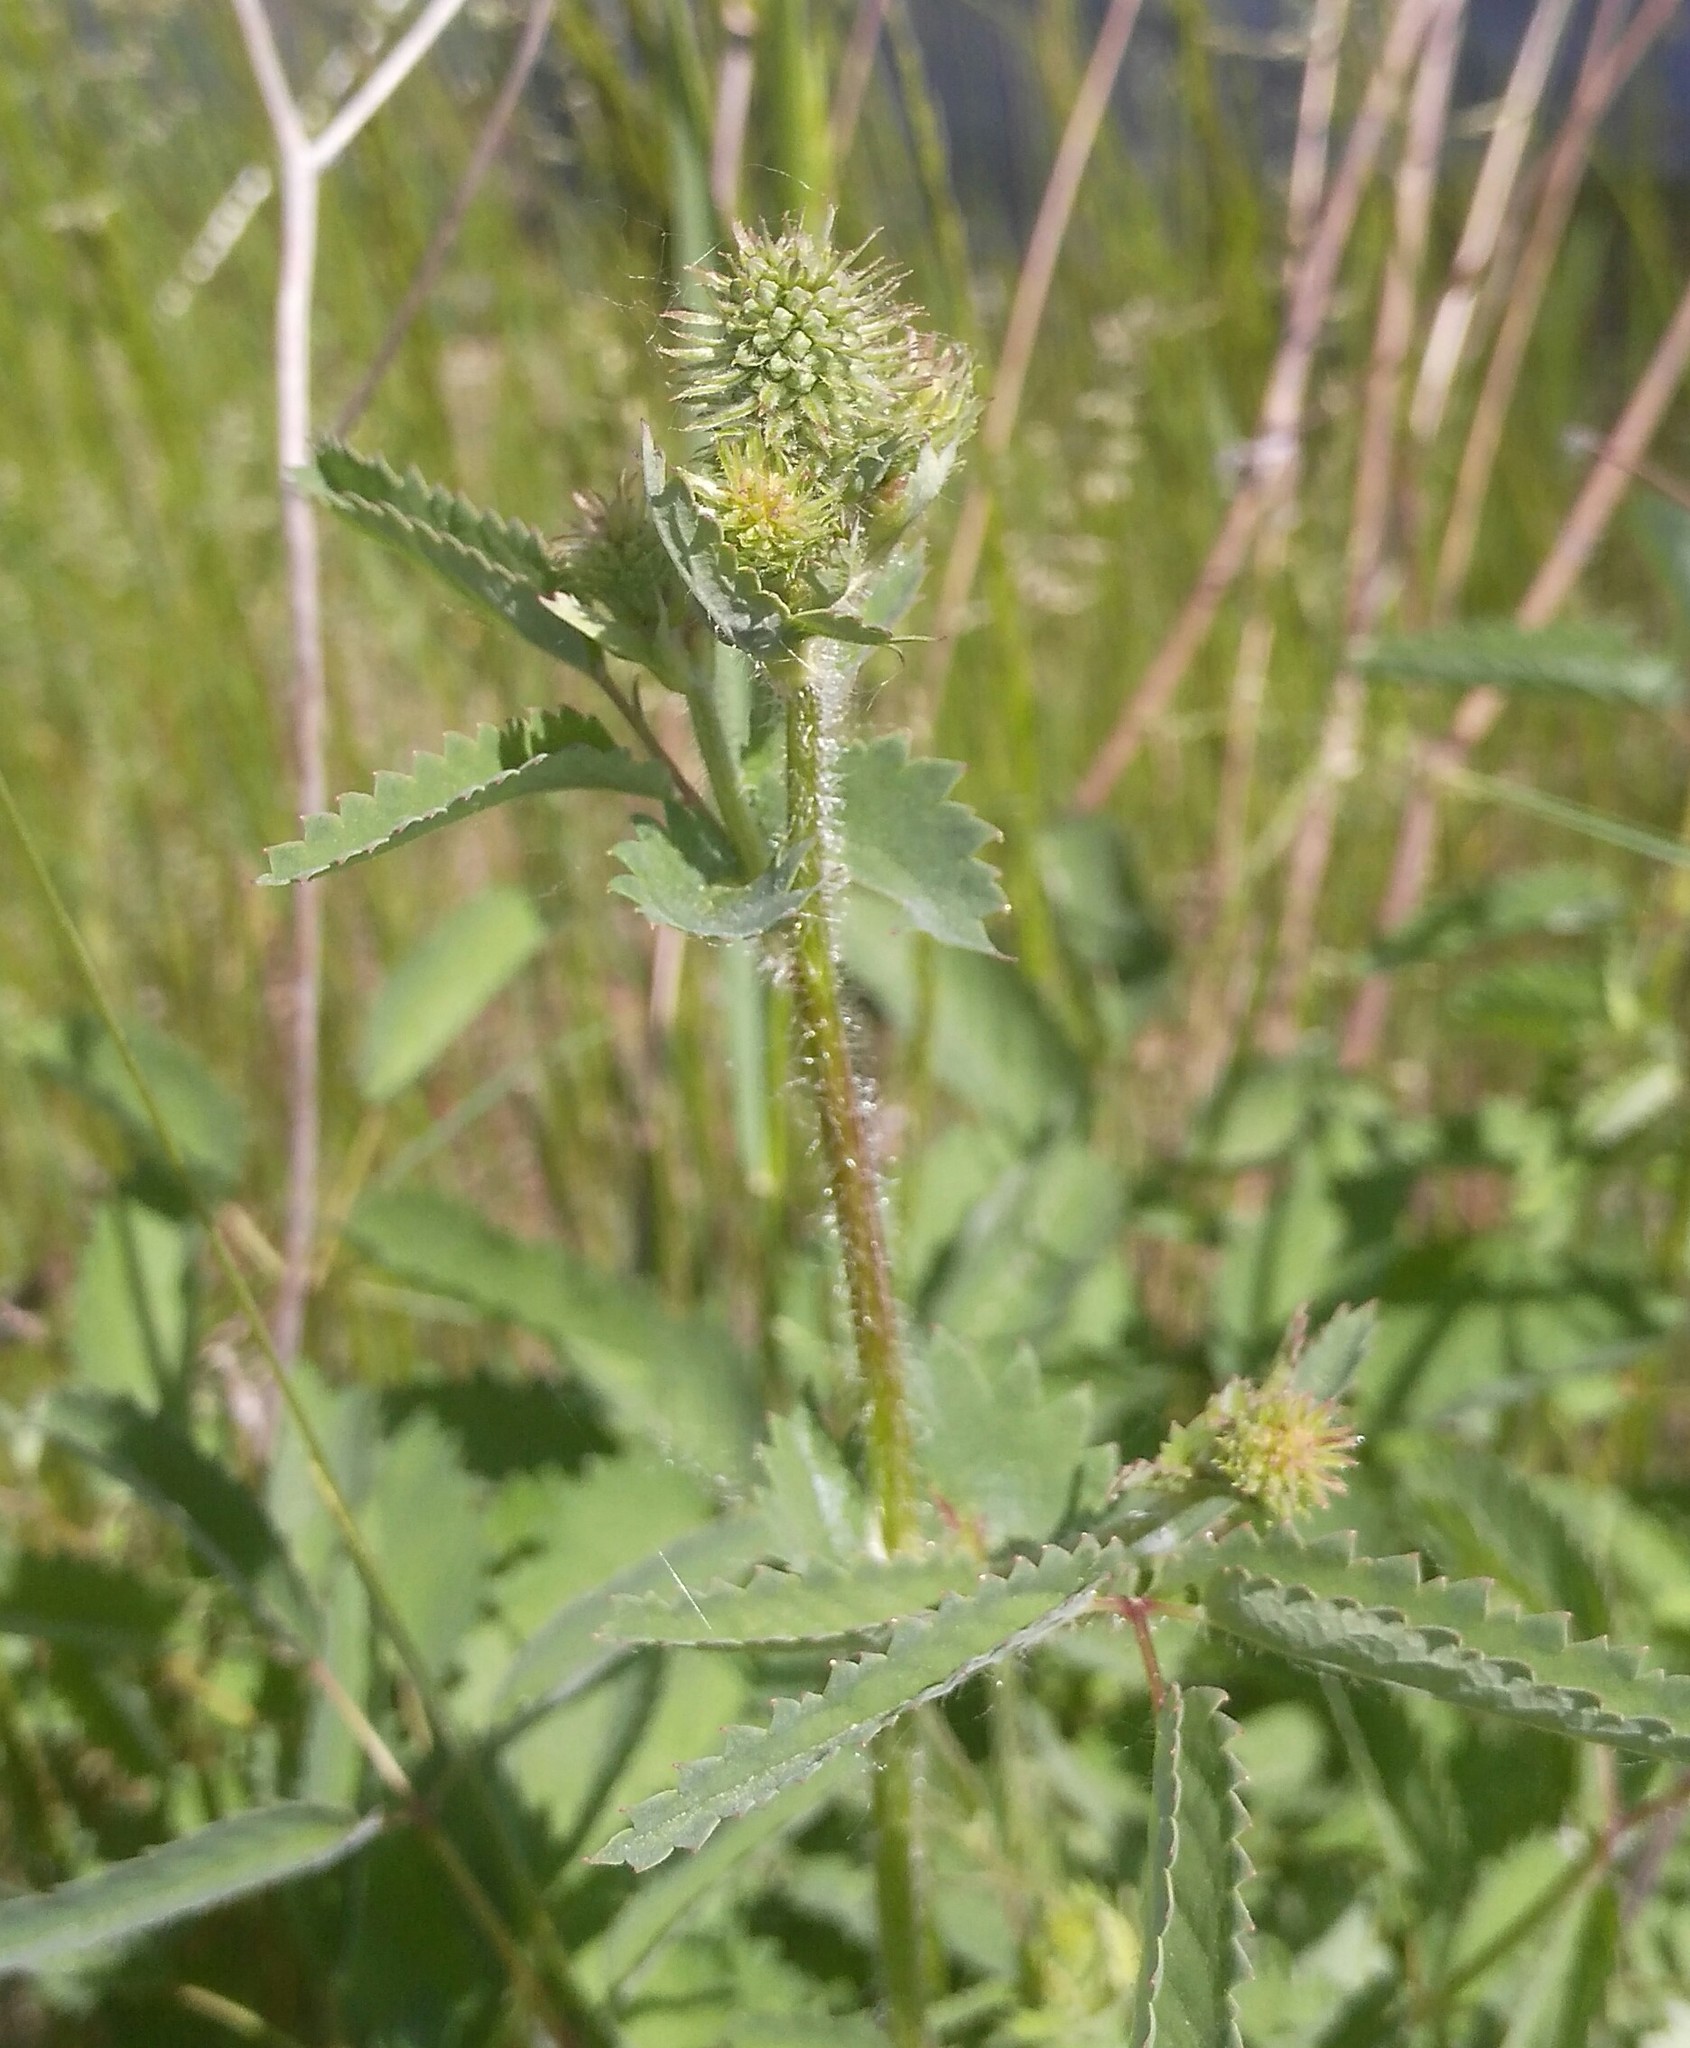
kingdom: Plantae
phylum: Tracheophyta
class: Magnoliopsida
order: Rosales
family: Rosaceae
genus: Sanguisorba
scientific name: Sanguisorba officinalis
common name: Great burnet
